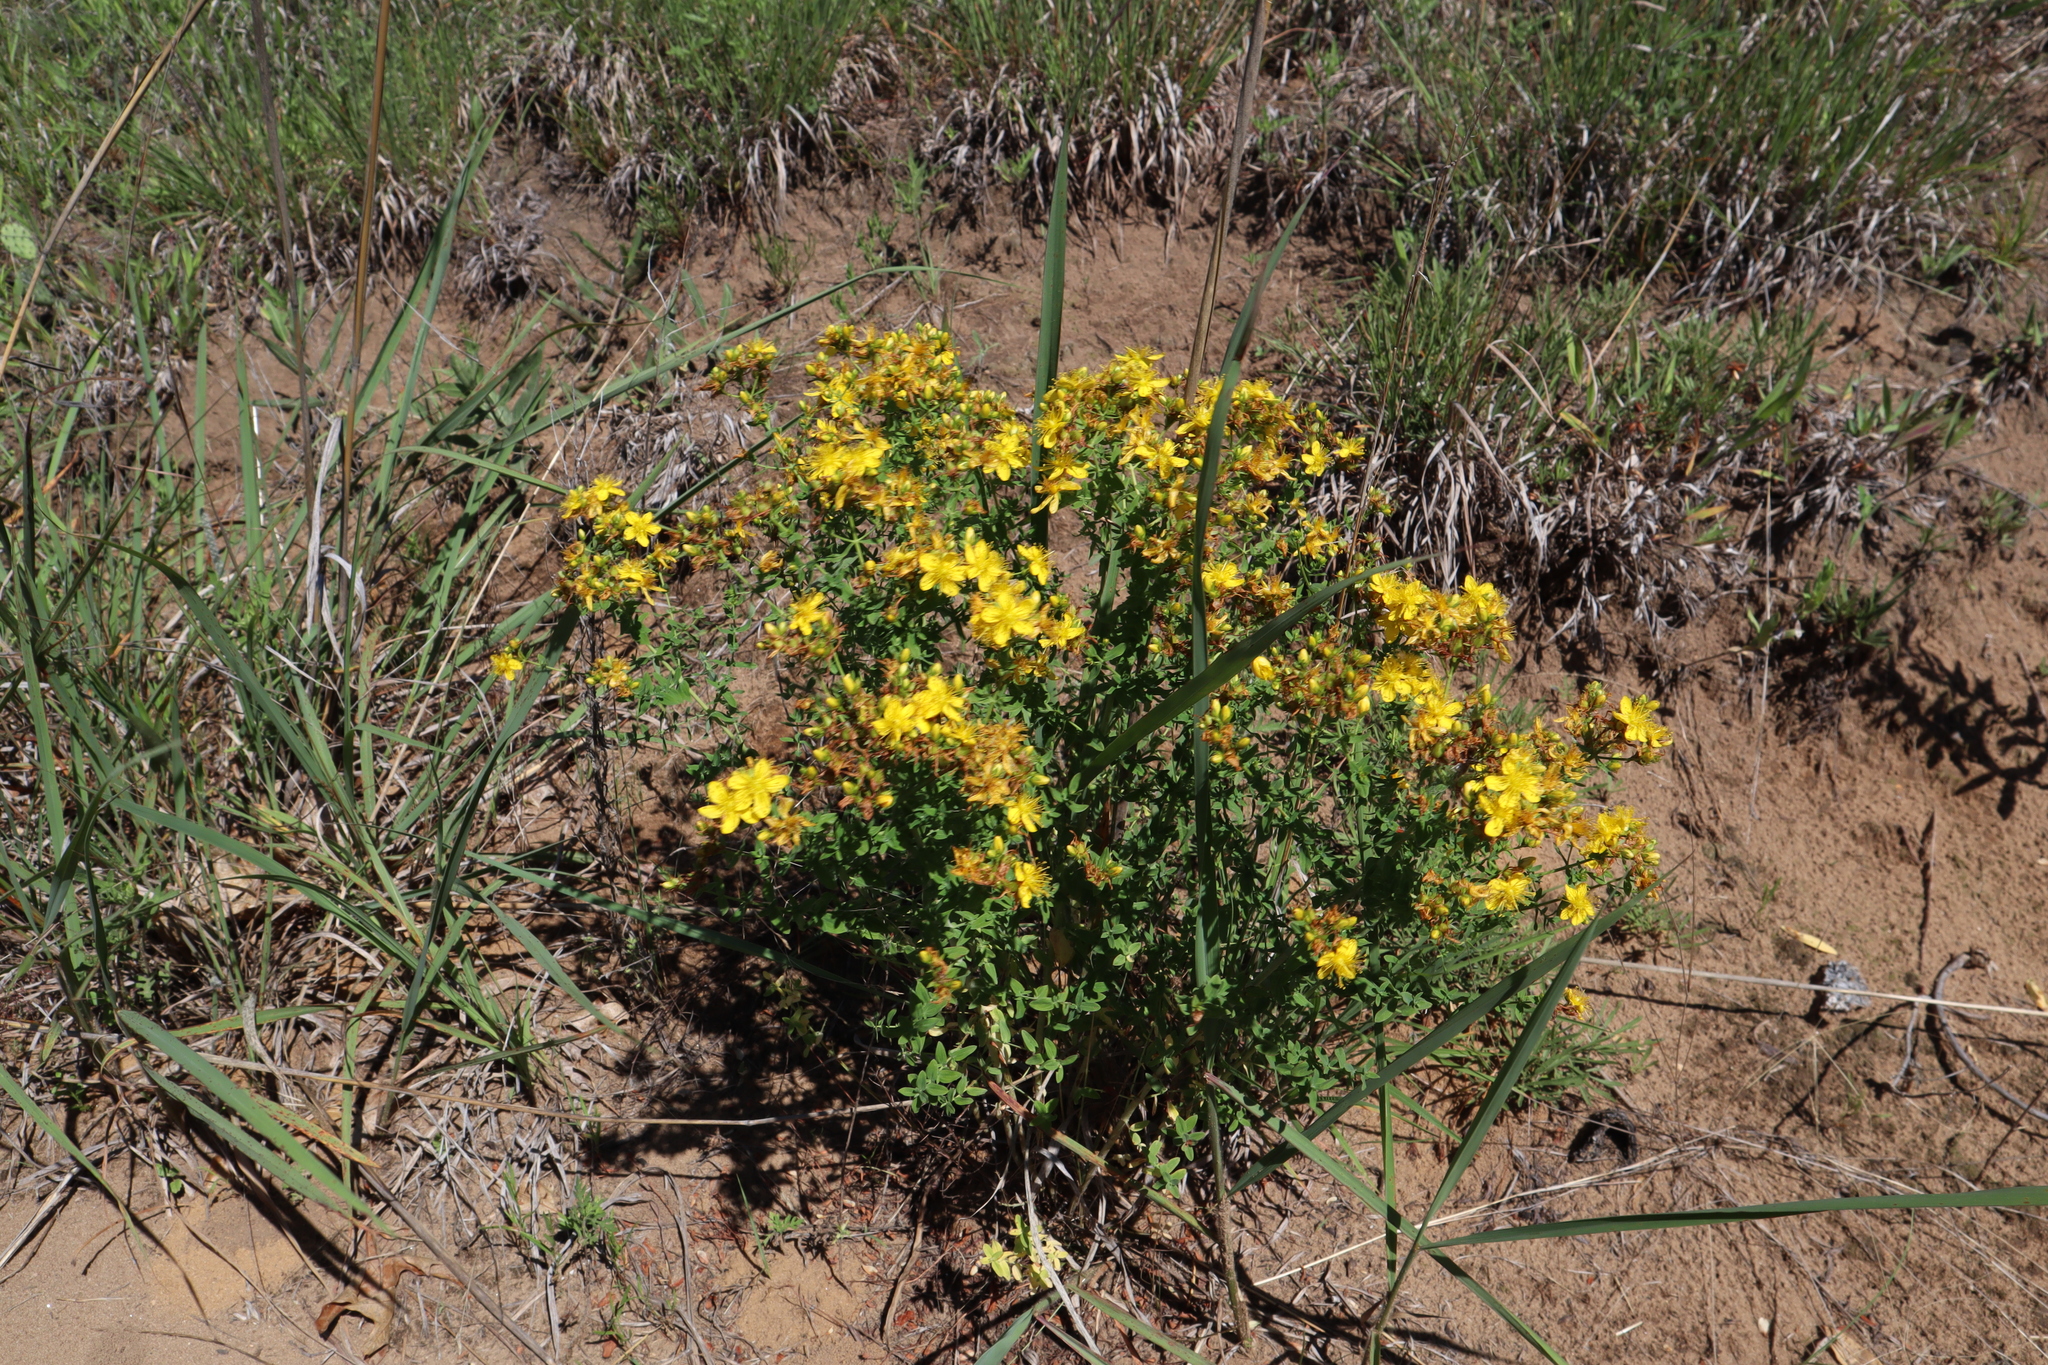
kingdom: Plantae
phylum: Tracheophyta
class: Magnoliopsida
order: Malpighiales
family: Hypericaceae
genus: Hypericum
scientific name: Hypericum perforatum
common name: Common st. johnswort
